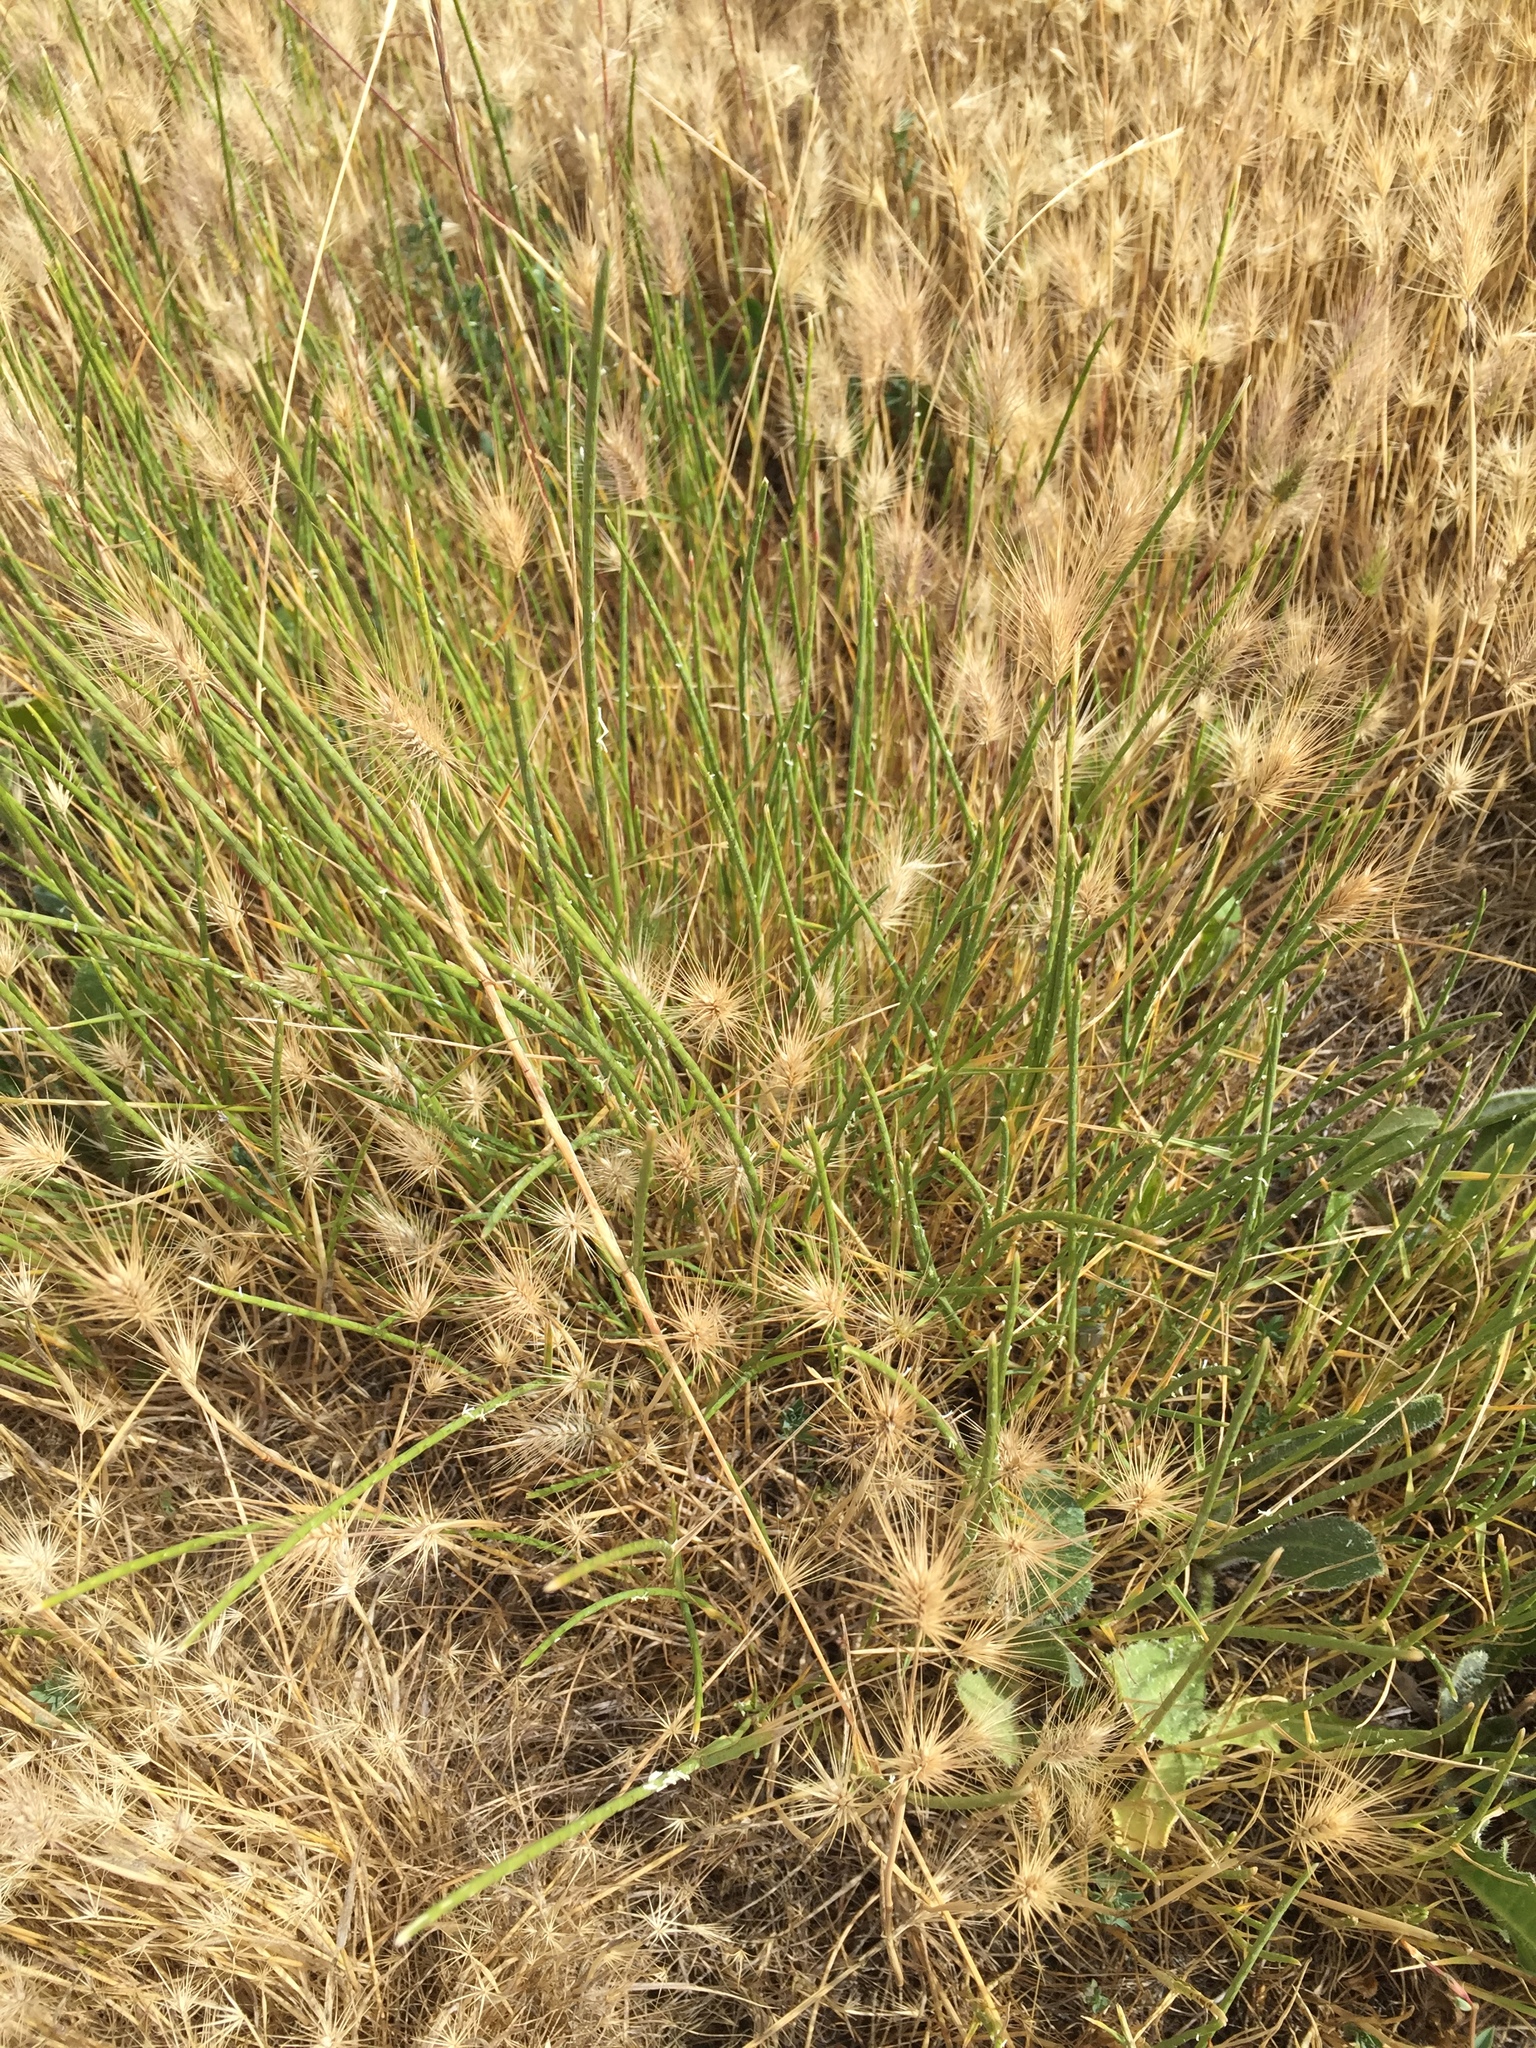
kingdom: Plantae
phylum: Tracheophyta
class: Liliopsida
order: Poales
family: Poaceae
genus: Parapholis
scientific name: Parapholis incurva
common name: Curved sicklegrass
